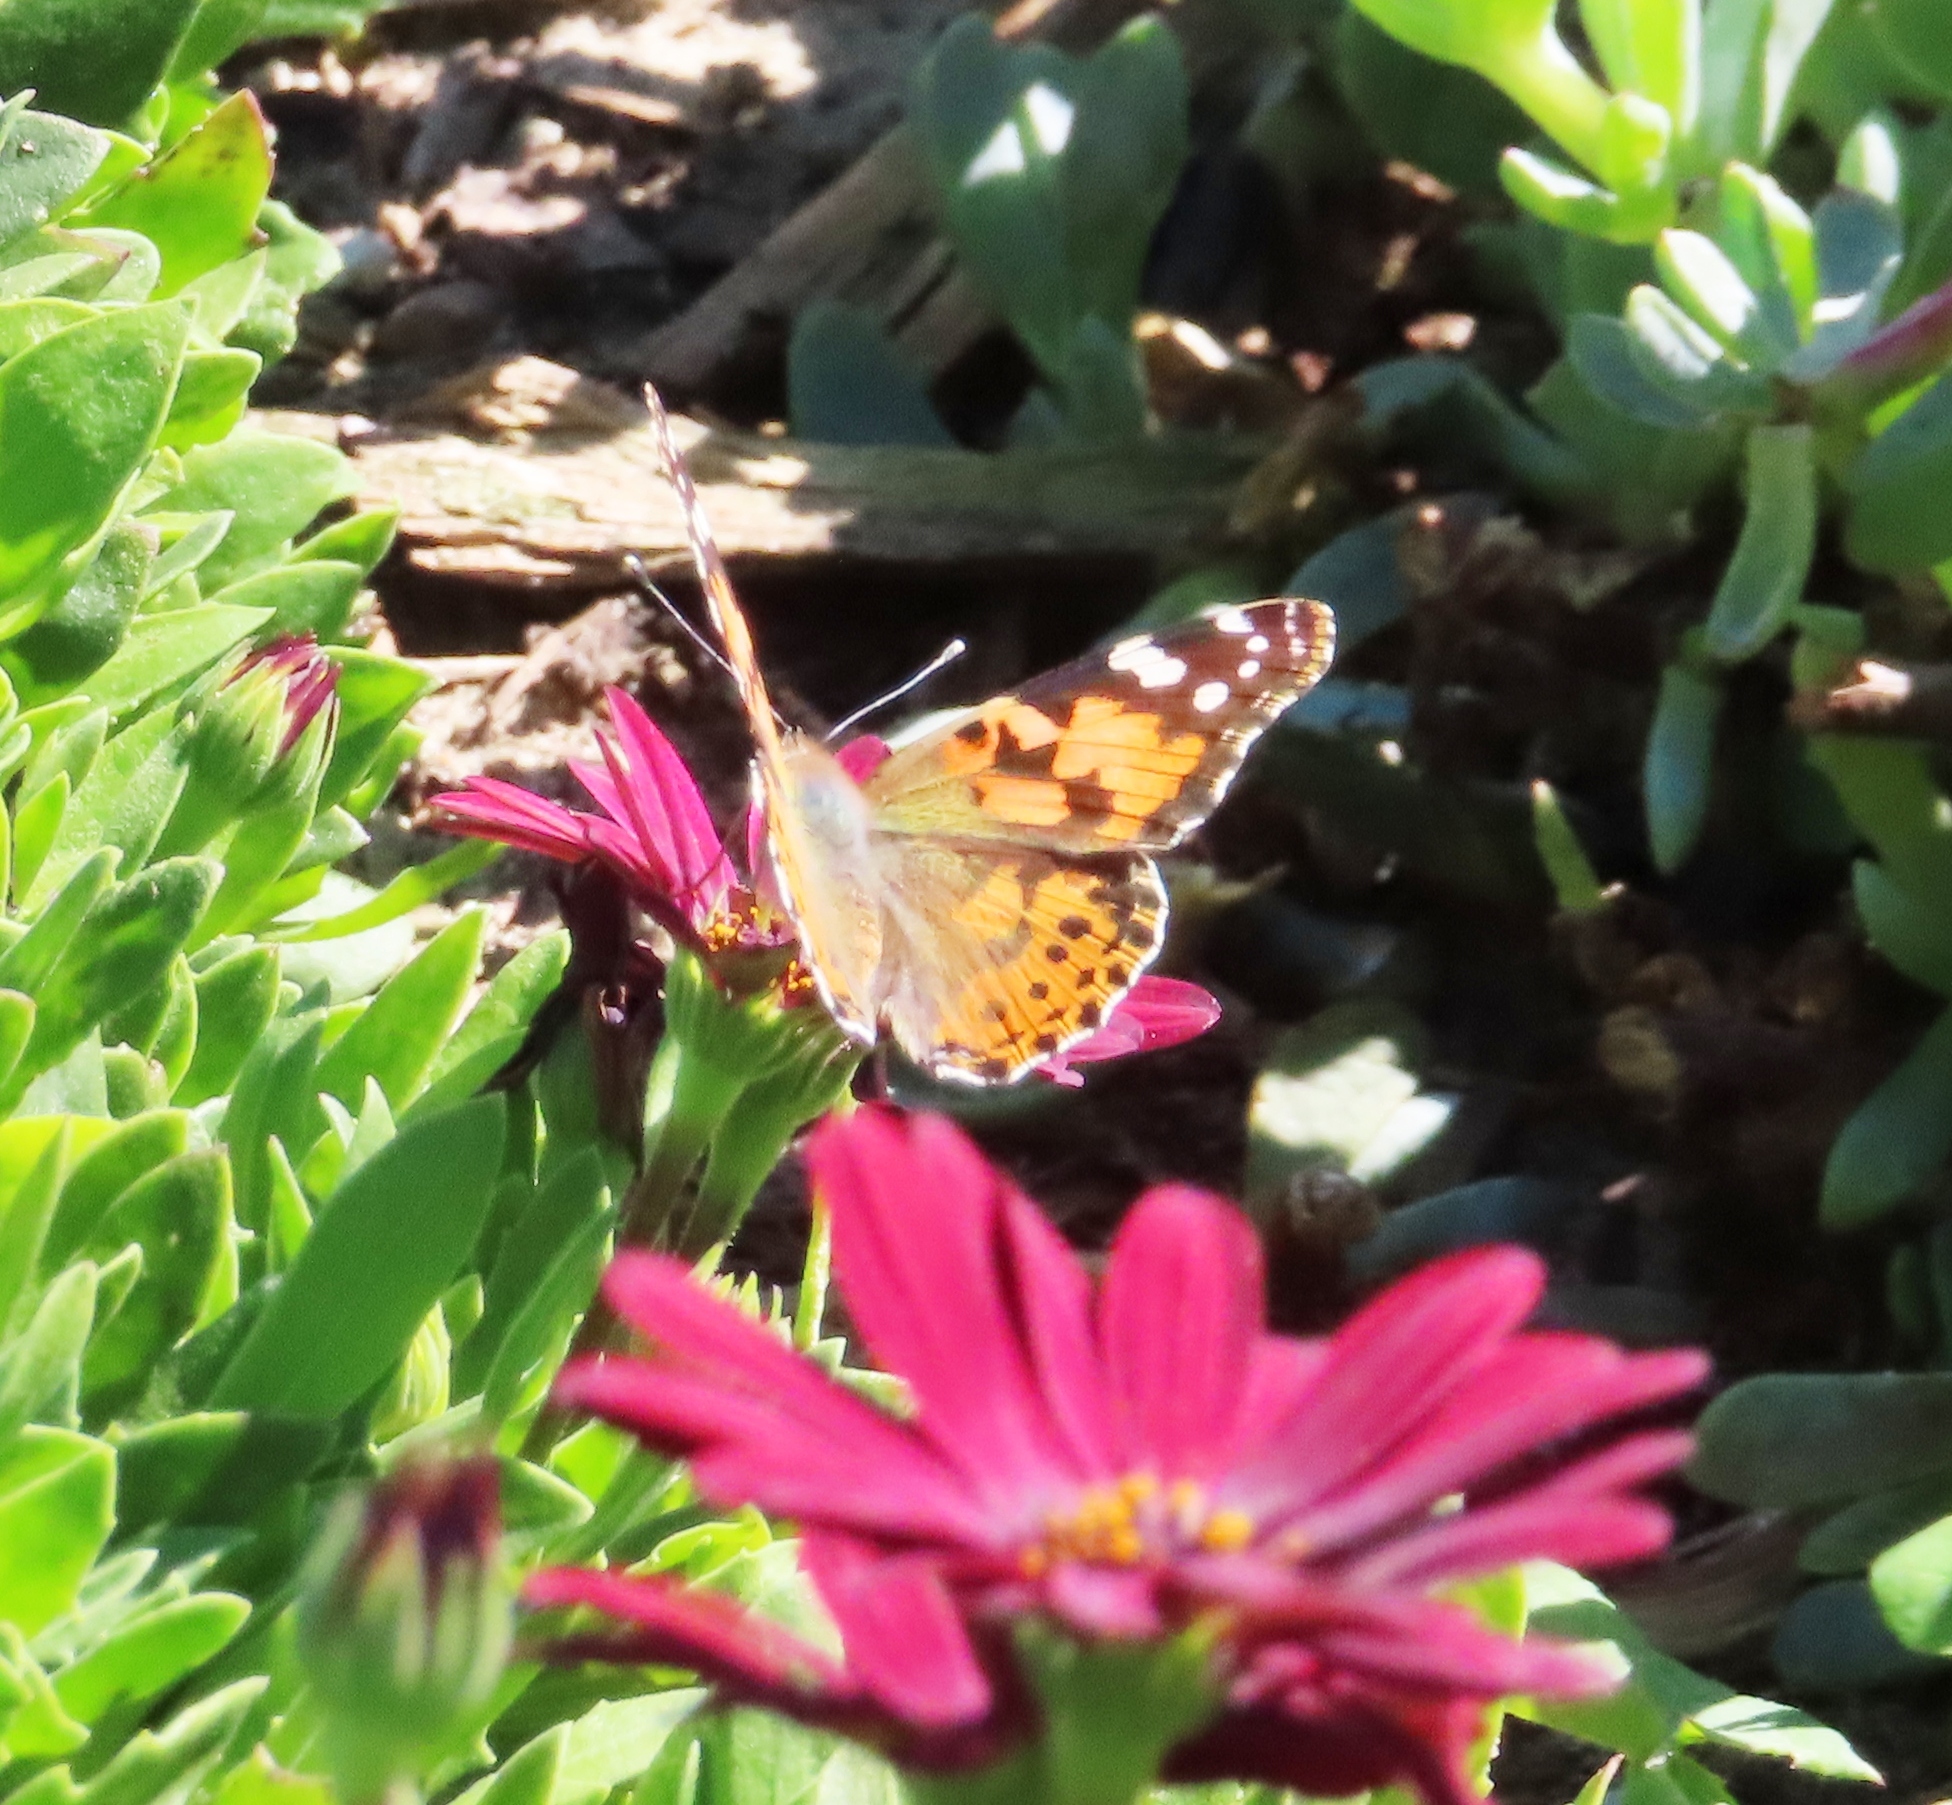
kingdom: Animalia
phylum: Arthropoda
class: Insecta
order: Lepidoptera
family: Nymphalidae
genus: Vanessa
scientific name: Vanessa cardui
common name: Painted lady
